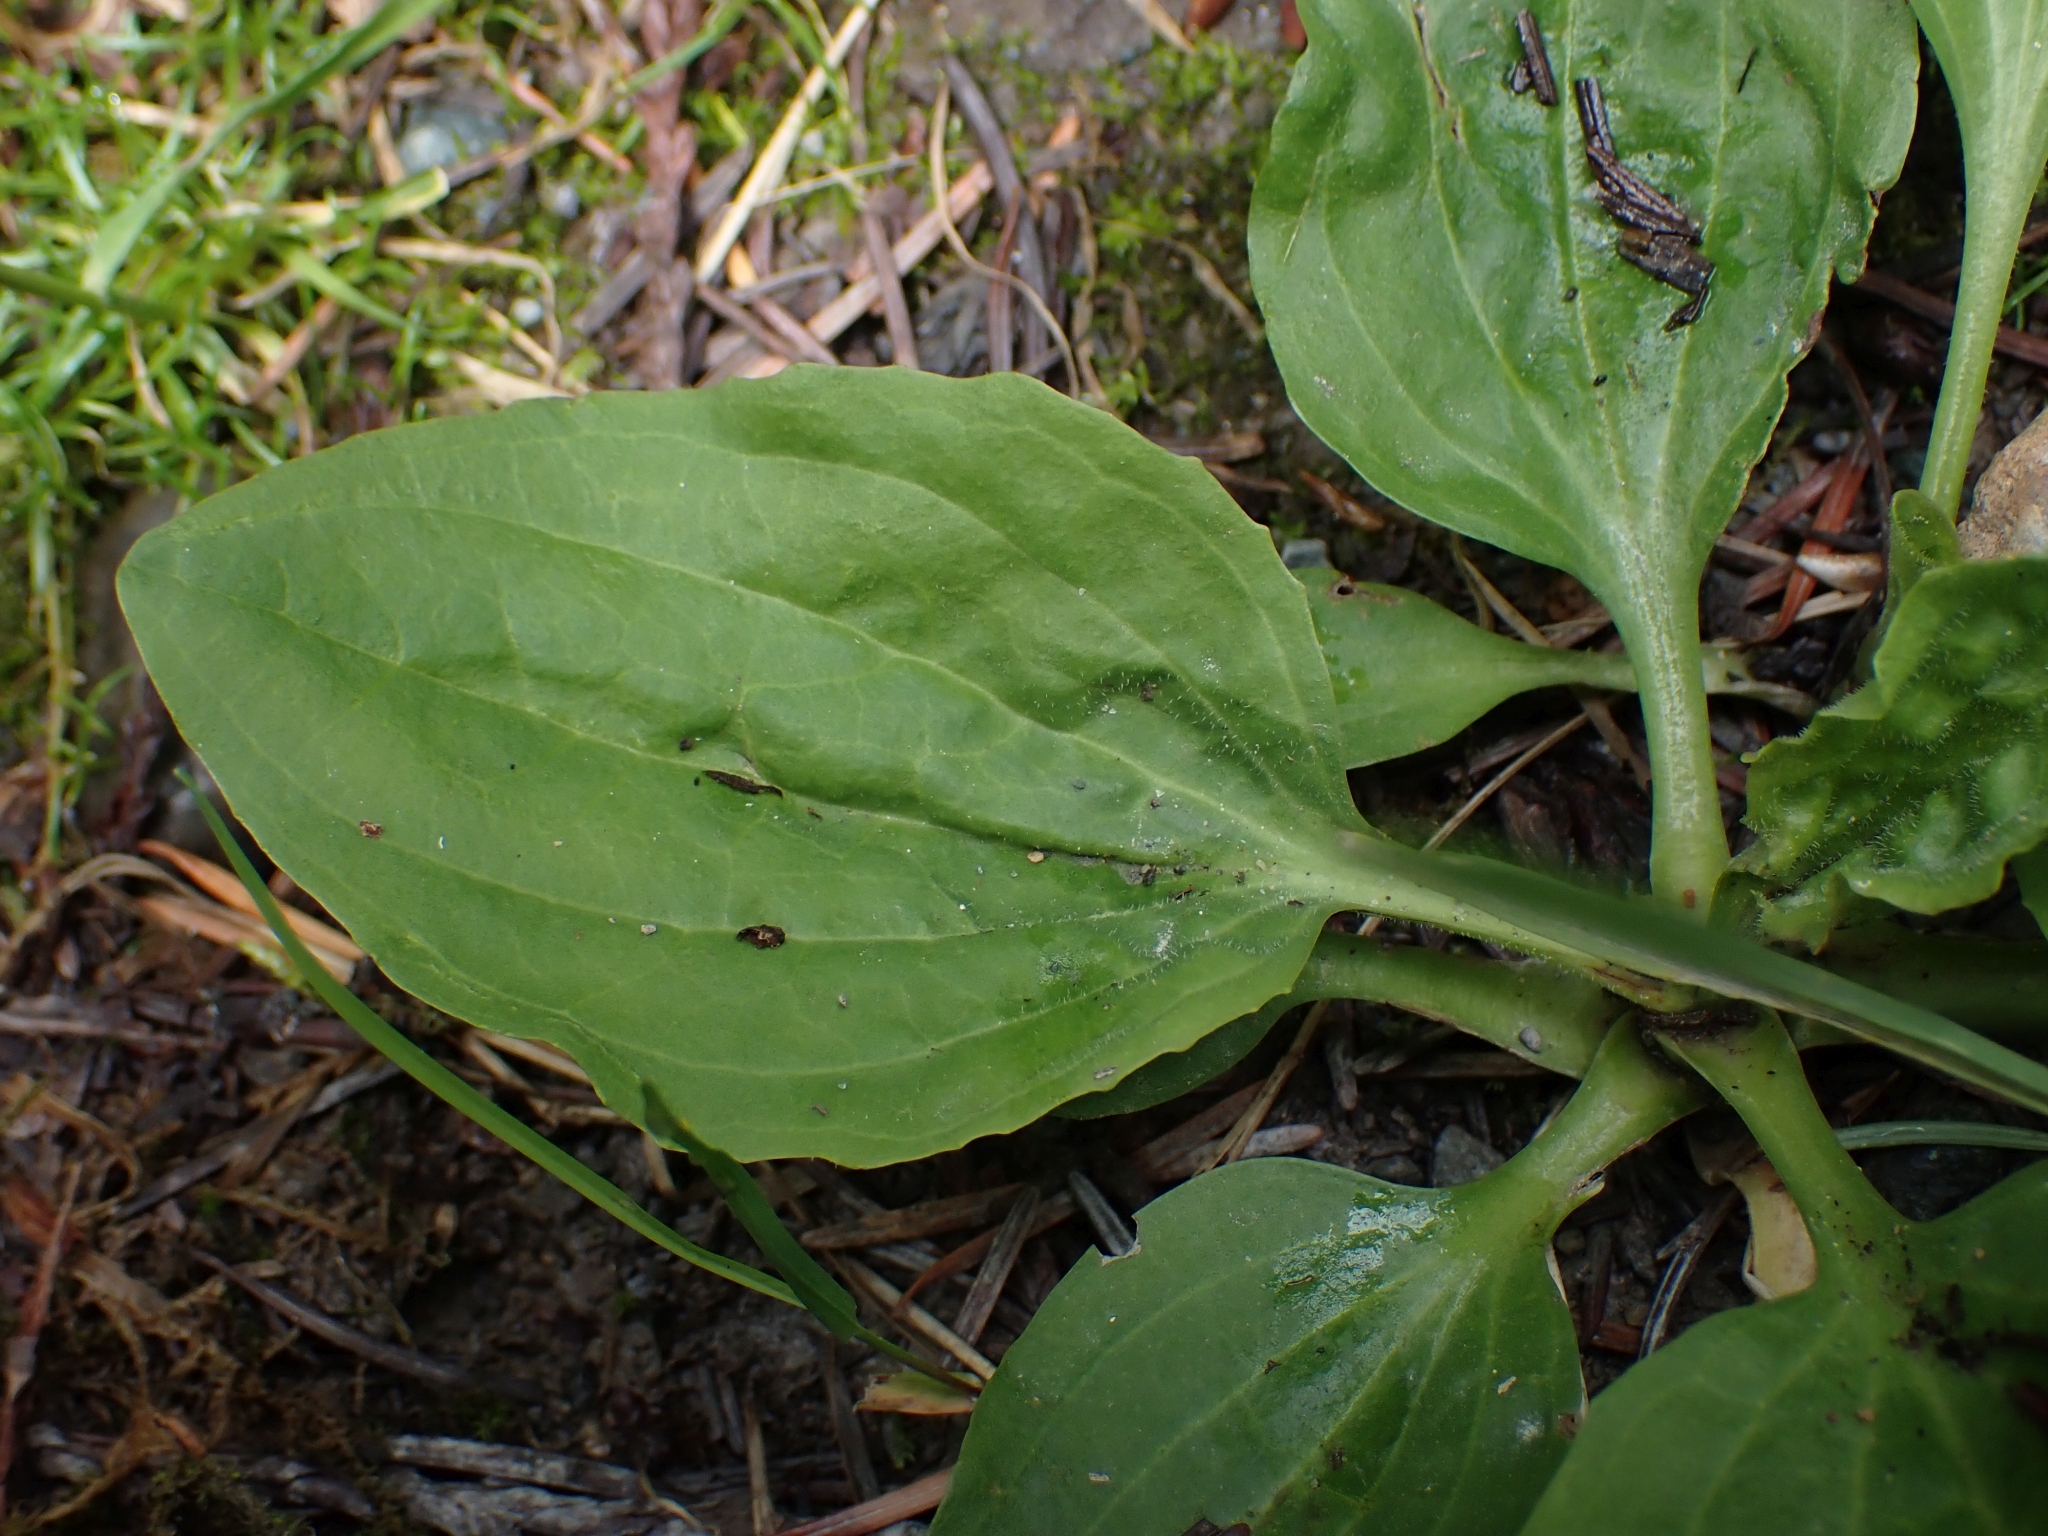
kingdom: Plantae
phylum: Tracheophyta
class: Magnoliopsida
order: Lamiales
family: Plantaginaceae
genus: Plantago
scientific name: Plantago major
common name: Common plantain
